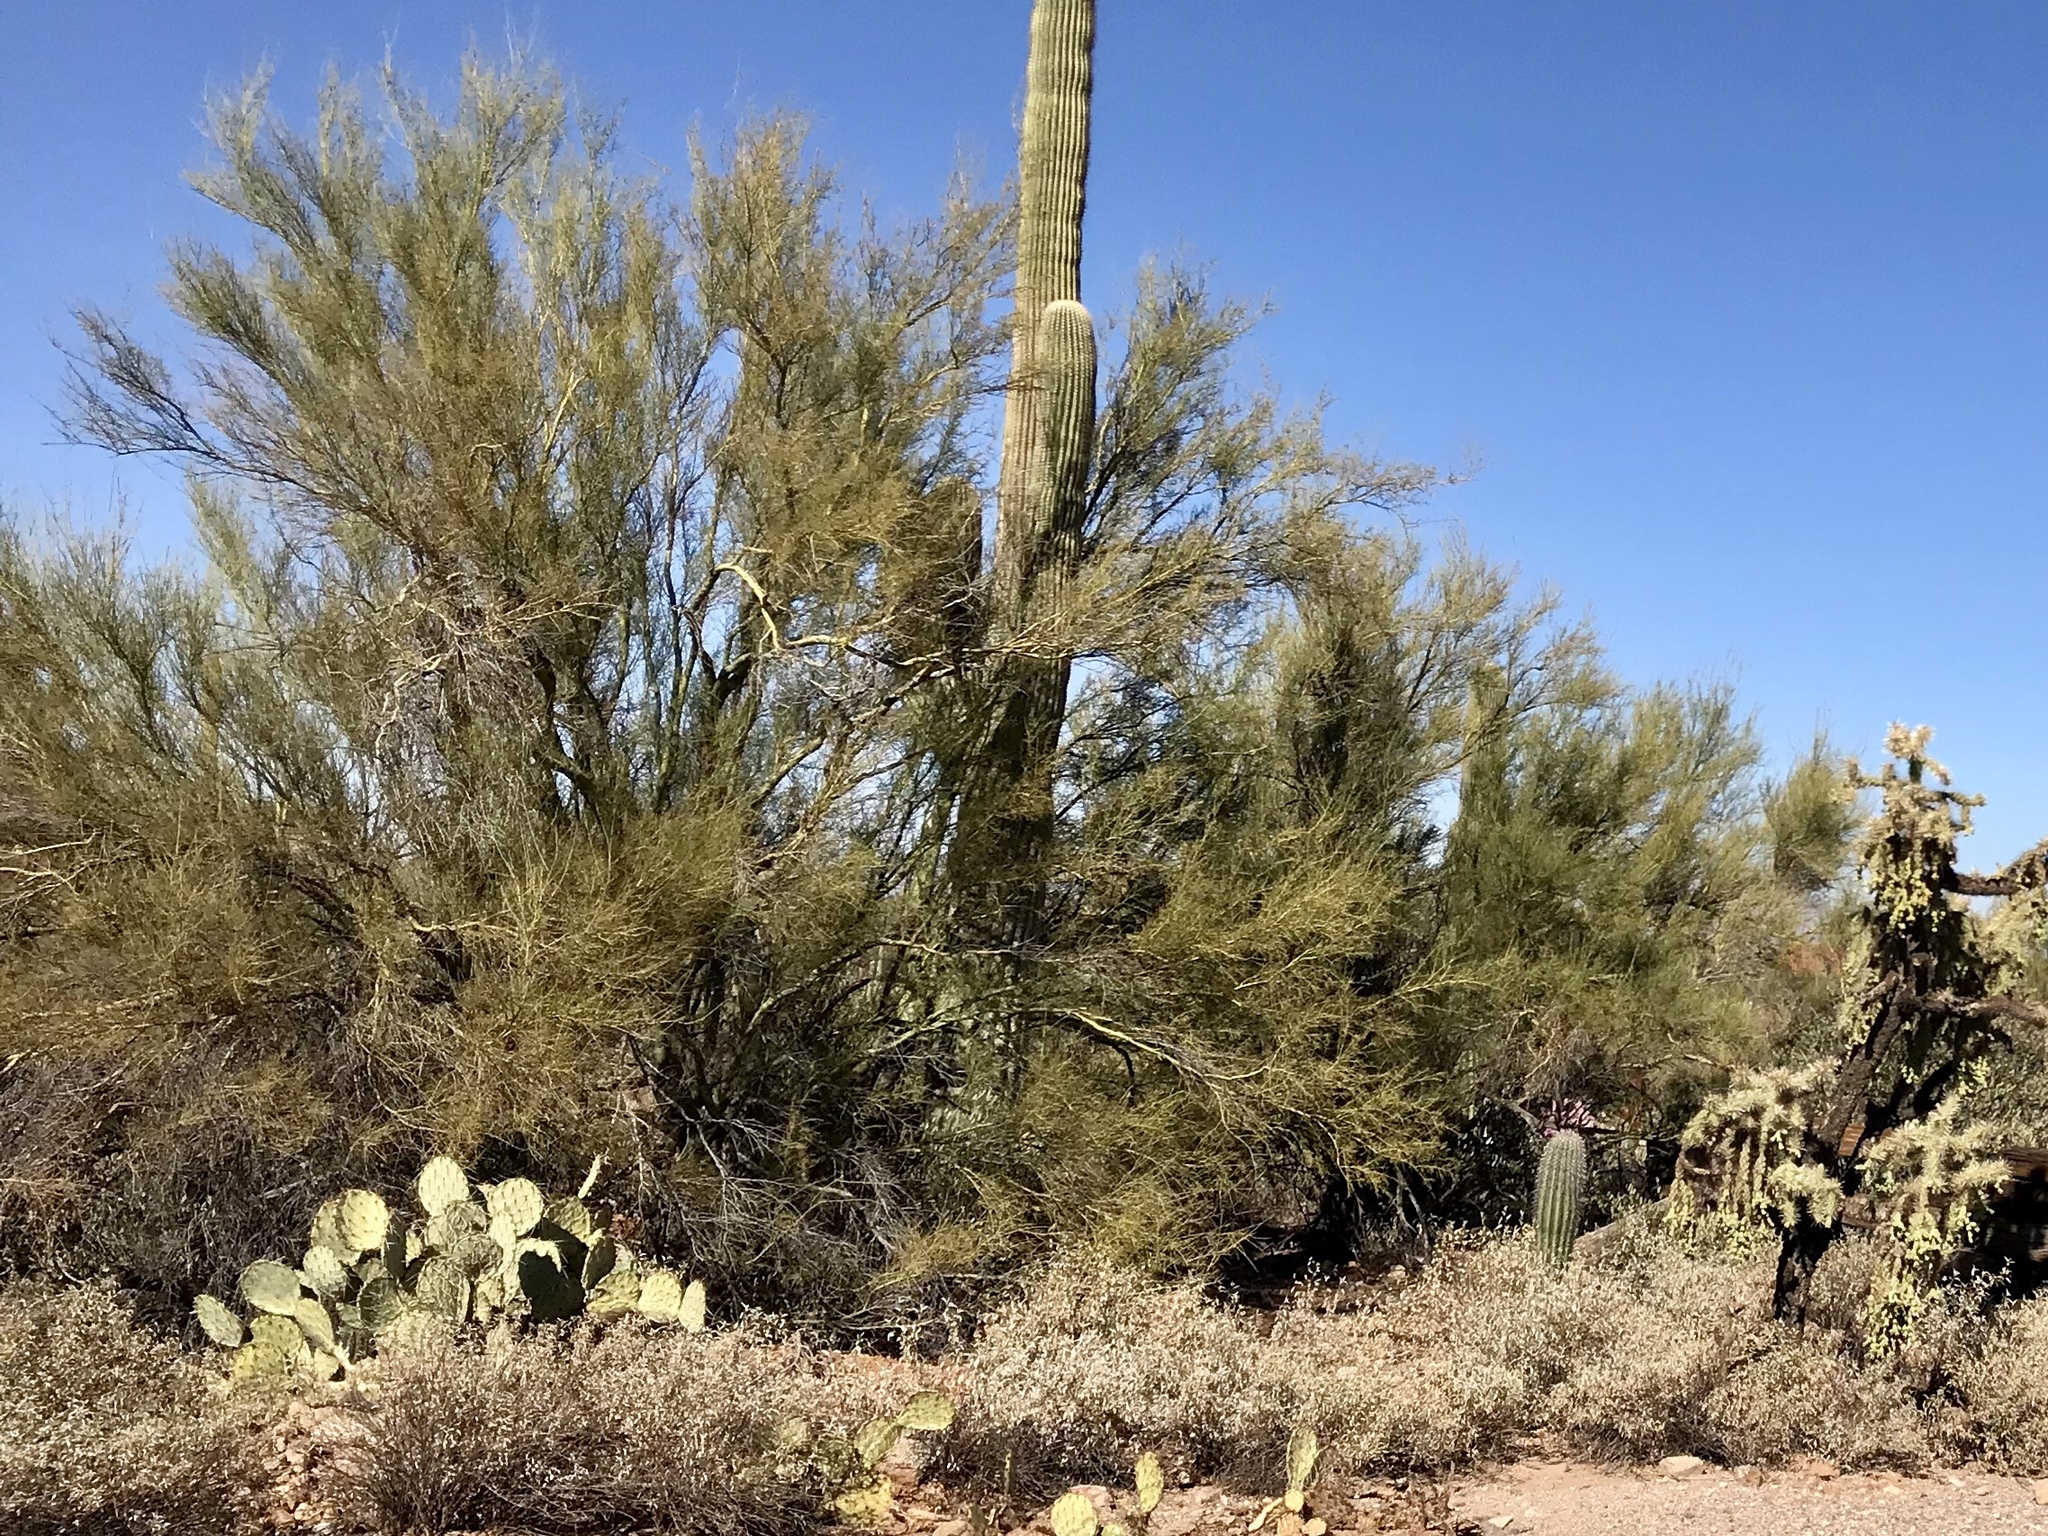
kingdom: Plantae
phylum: Tracheophyta
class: Magnoliopsida
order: Fabales
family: Fabaceae
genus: Parkinsonia
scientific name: Parkinsonia florida
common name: Blue paloverde
